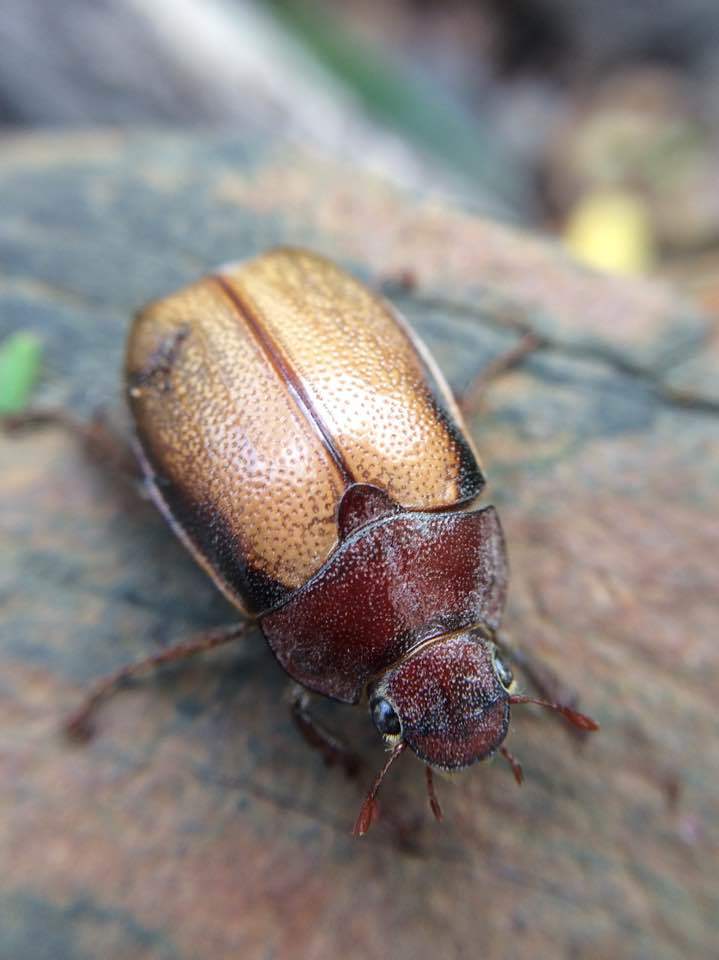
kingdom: Animalia
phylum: Arthropoda
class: Insecta
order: Coleoptera
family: Scarabaeidae
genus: Pegylis
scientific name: Pegylis sommeri
